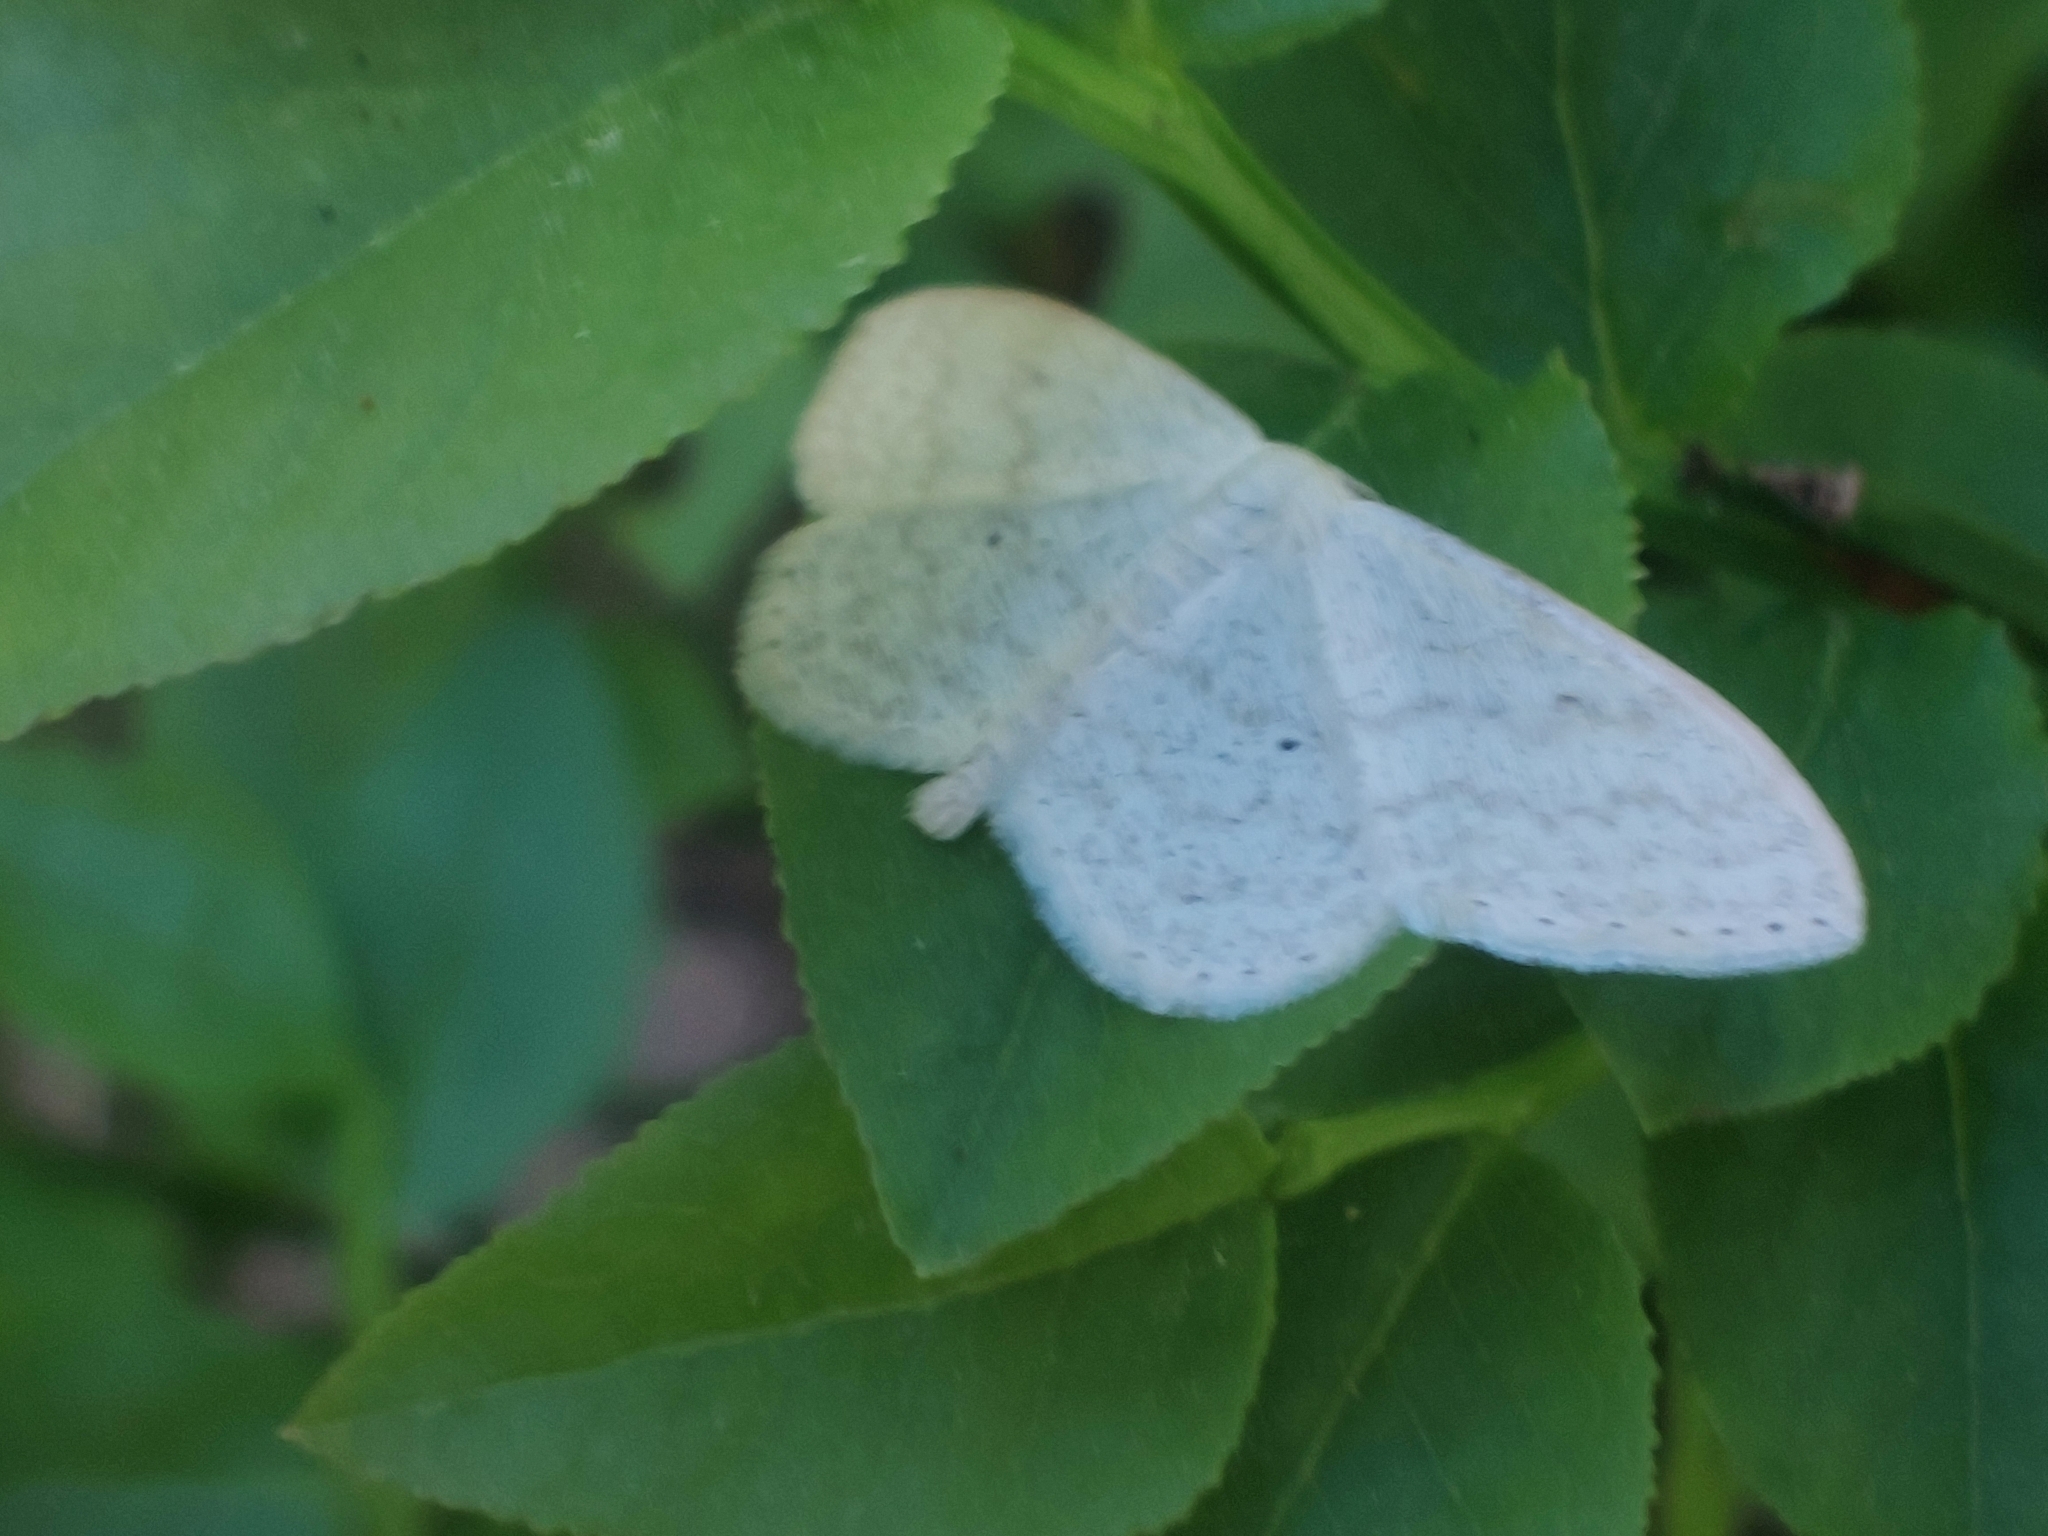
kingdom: Animalia
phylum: Arthropoda
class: Insecta
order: Lepidoptera
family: Geometridae
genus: Scopula
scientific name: Scopula floslactata
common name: Cream wave
